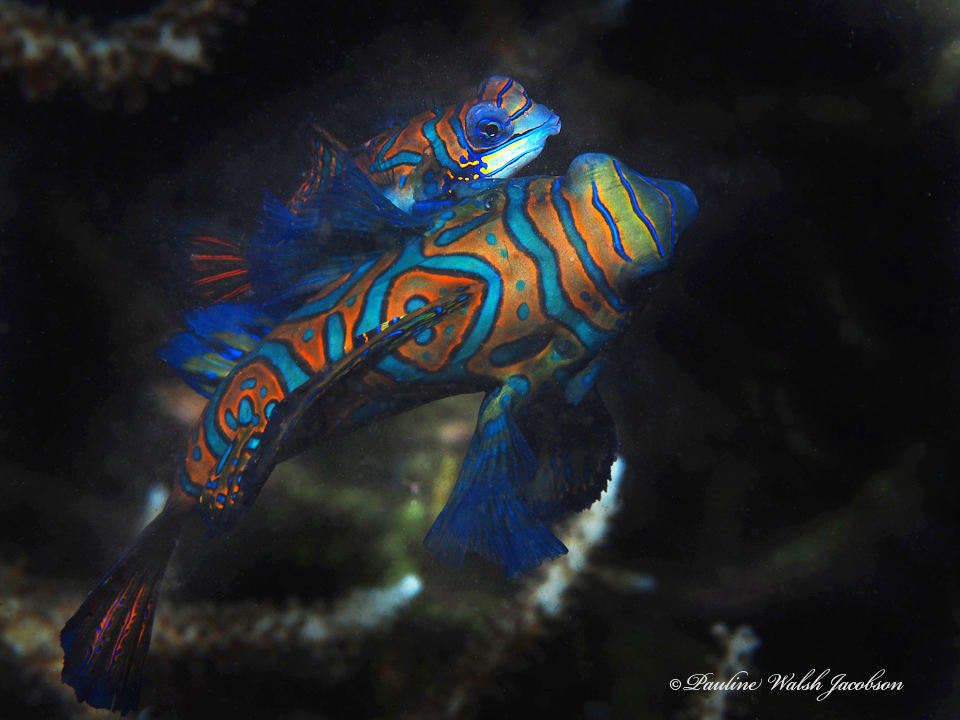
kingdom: Animalia
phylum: Chordata
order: Perciformes
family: Callionymidae
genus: Synchiropus
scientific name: Synchiropus splendidus
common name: Mandarinfish
